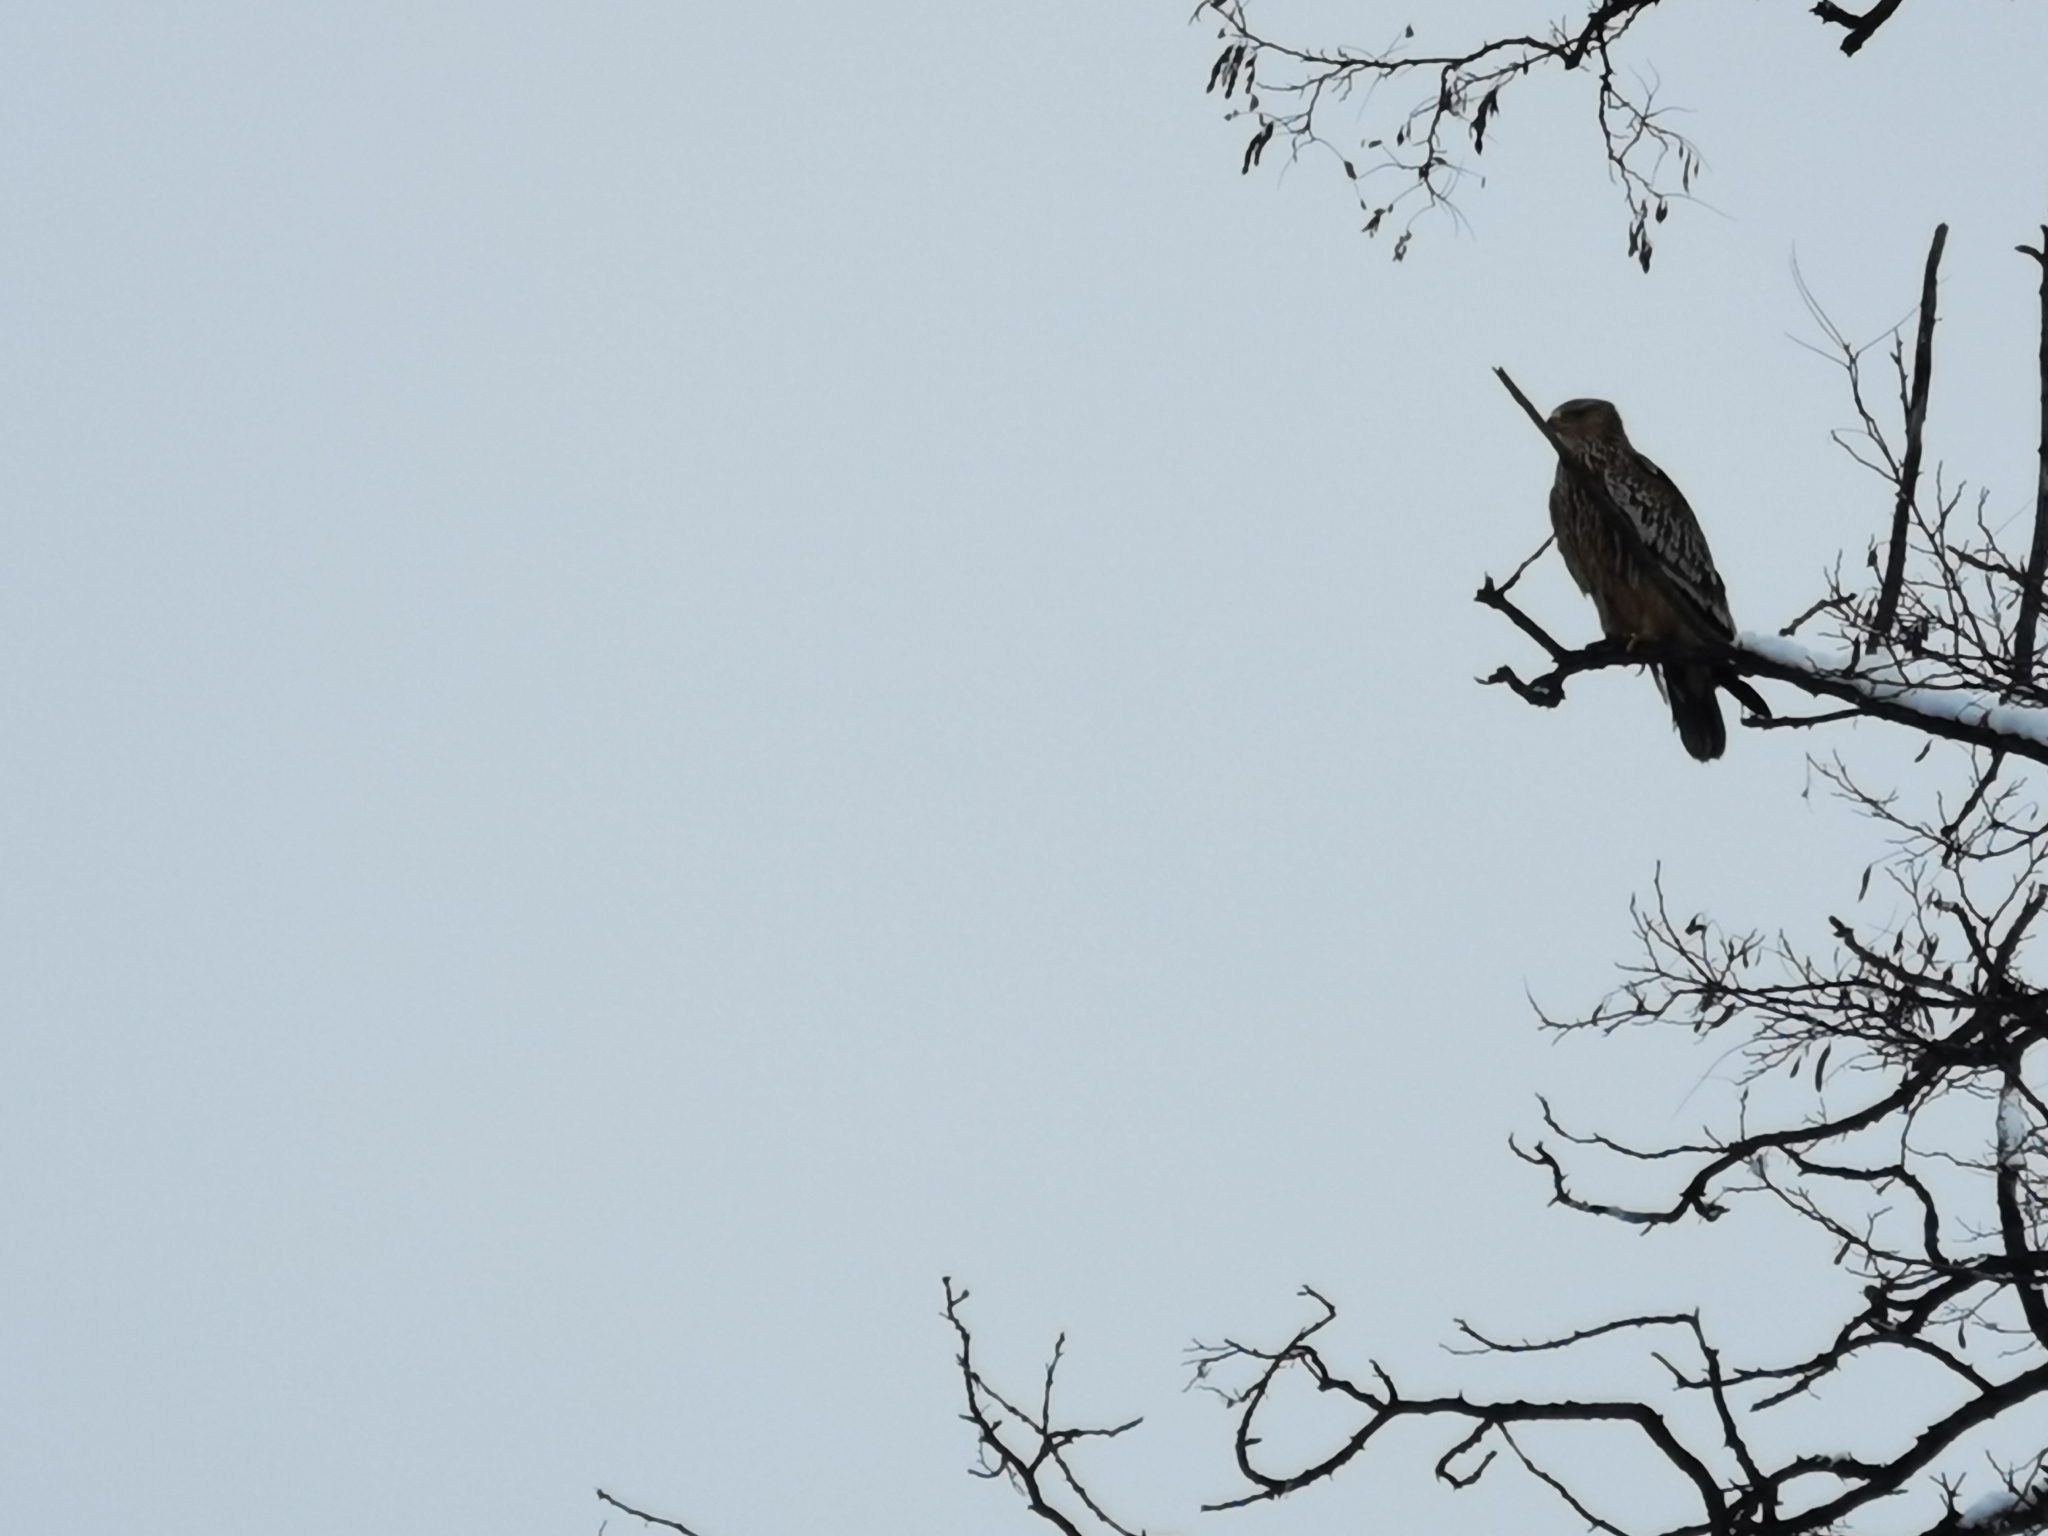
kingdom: Animalia
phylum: Chordata
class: Aves
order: Accipitriformes
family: Accipitridae
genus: Aquila
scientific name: Aquila heliaca
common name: Eastern imperial eagle
